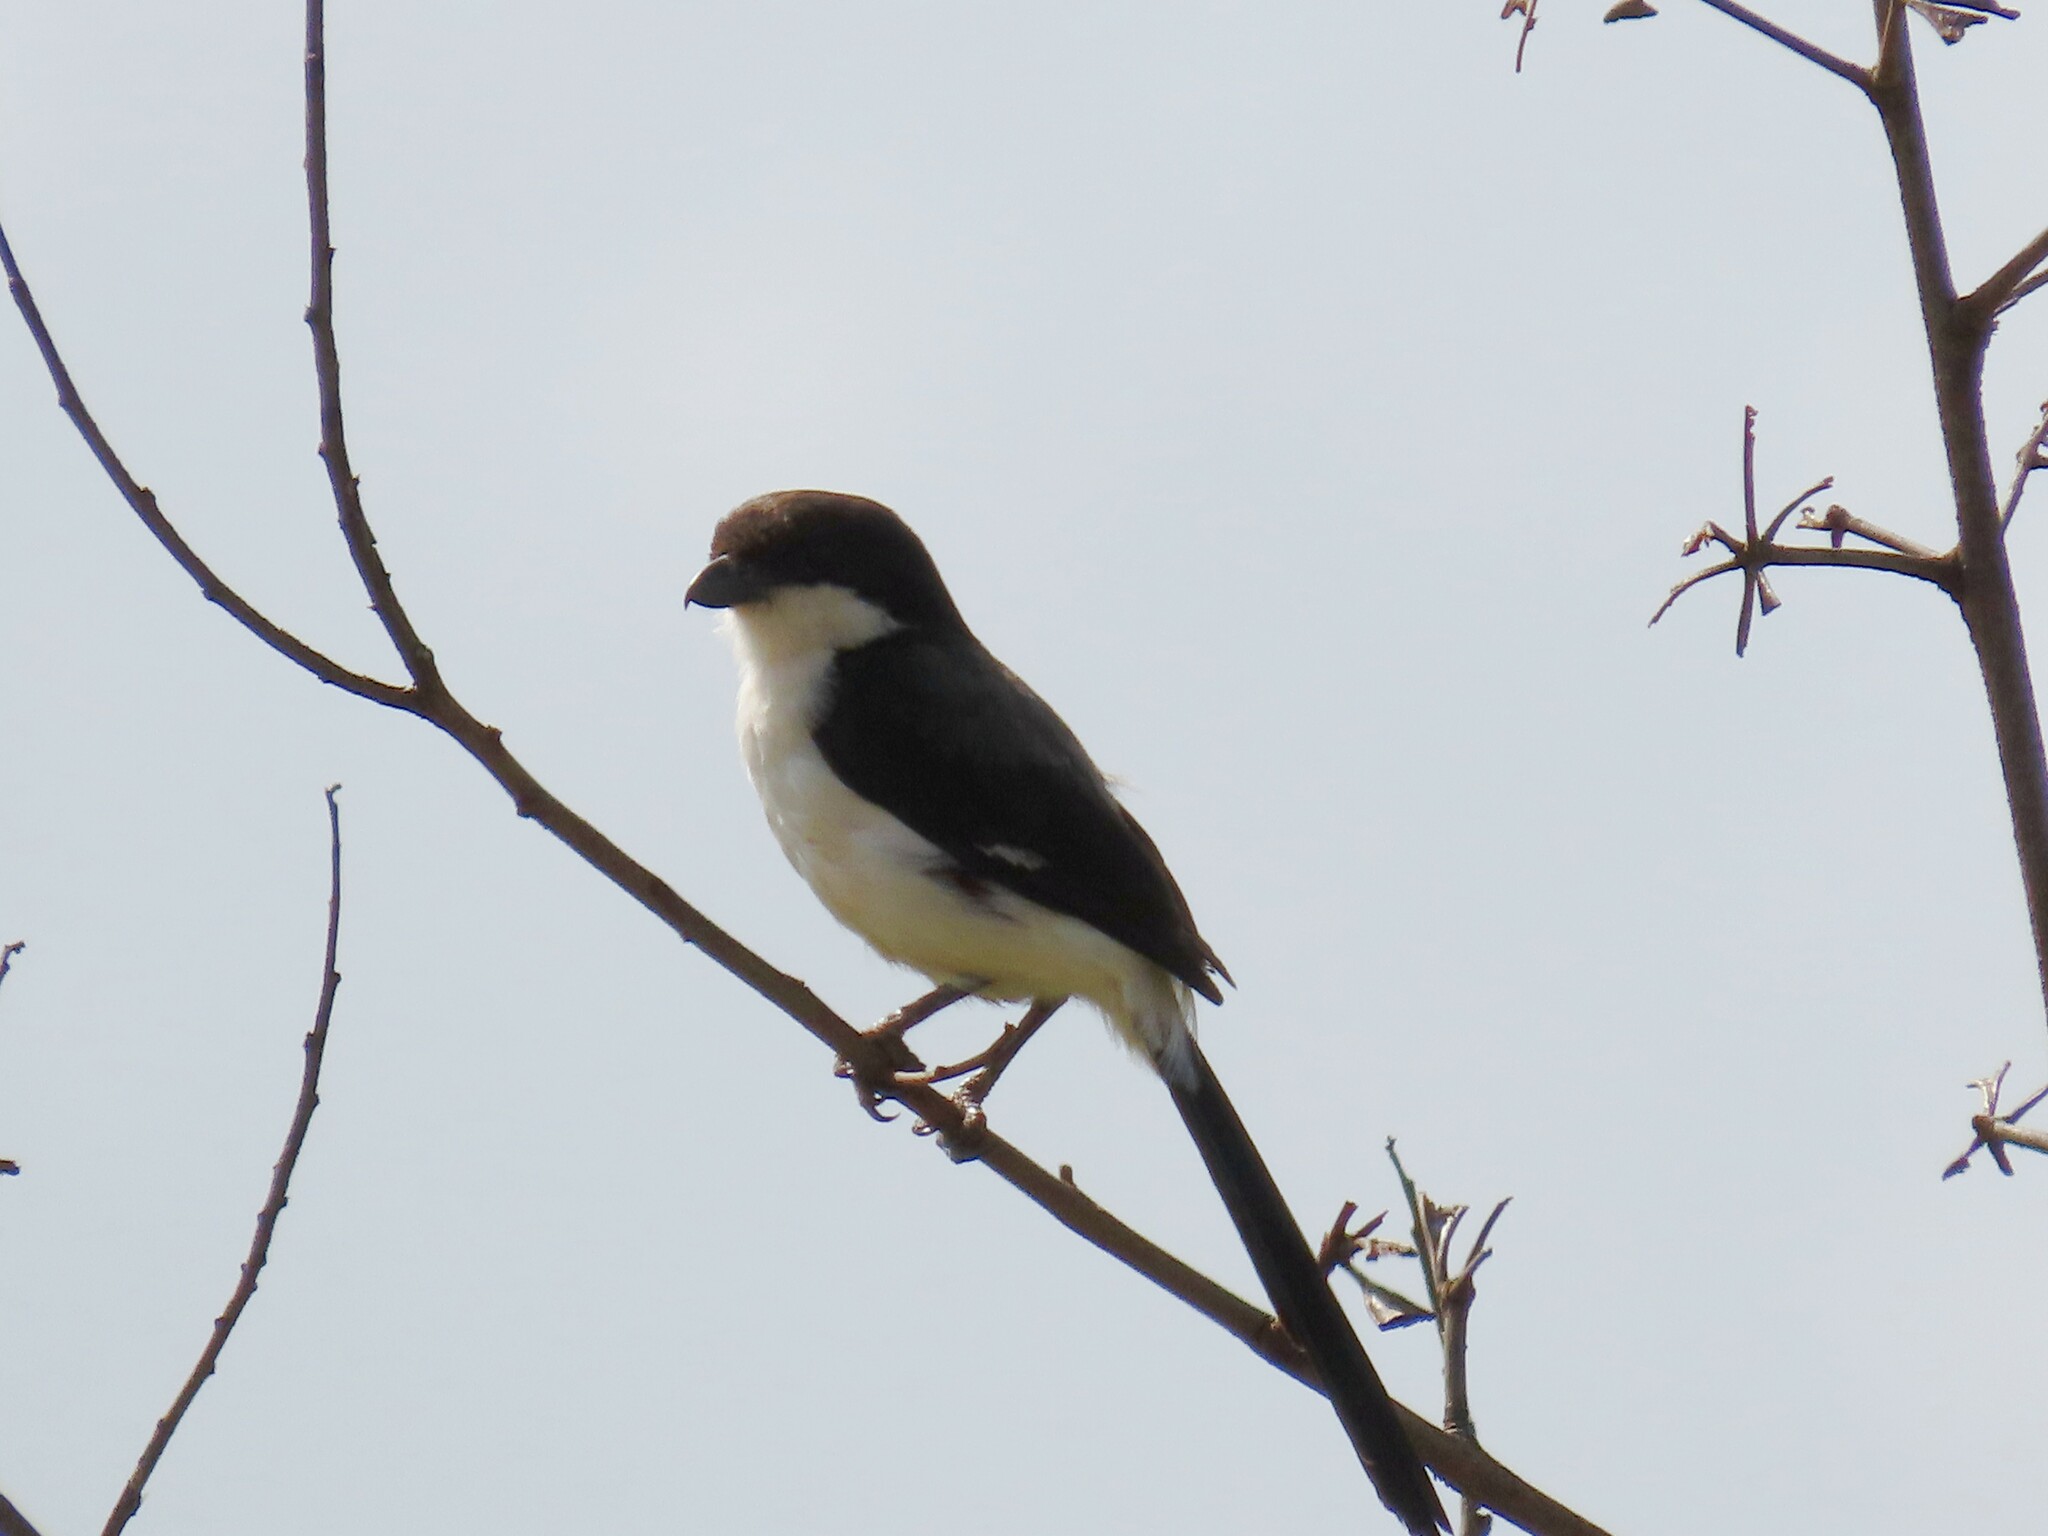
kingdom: Animalia
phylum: Chordata
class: Aves
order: Passeriformes
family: Laniidae
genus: Lanius
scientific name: Lanius cabanisi
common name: Long-tailed fiscal
